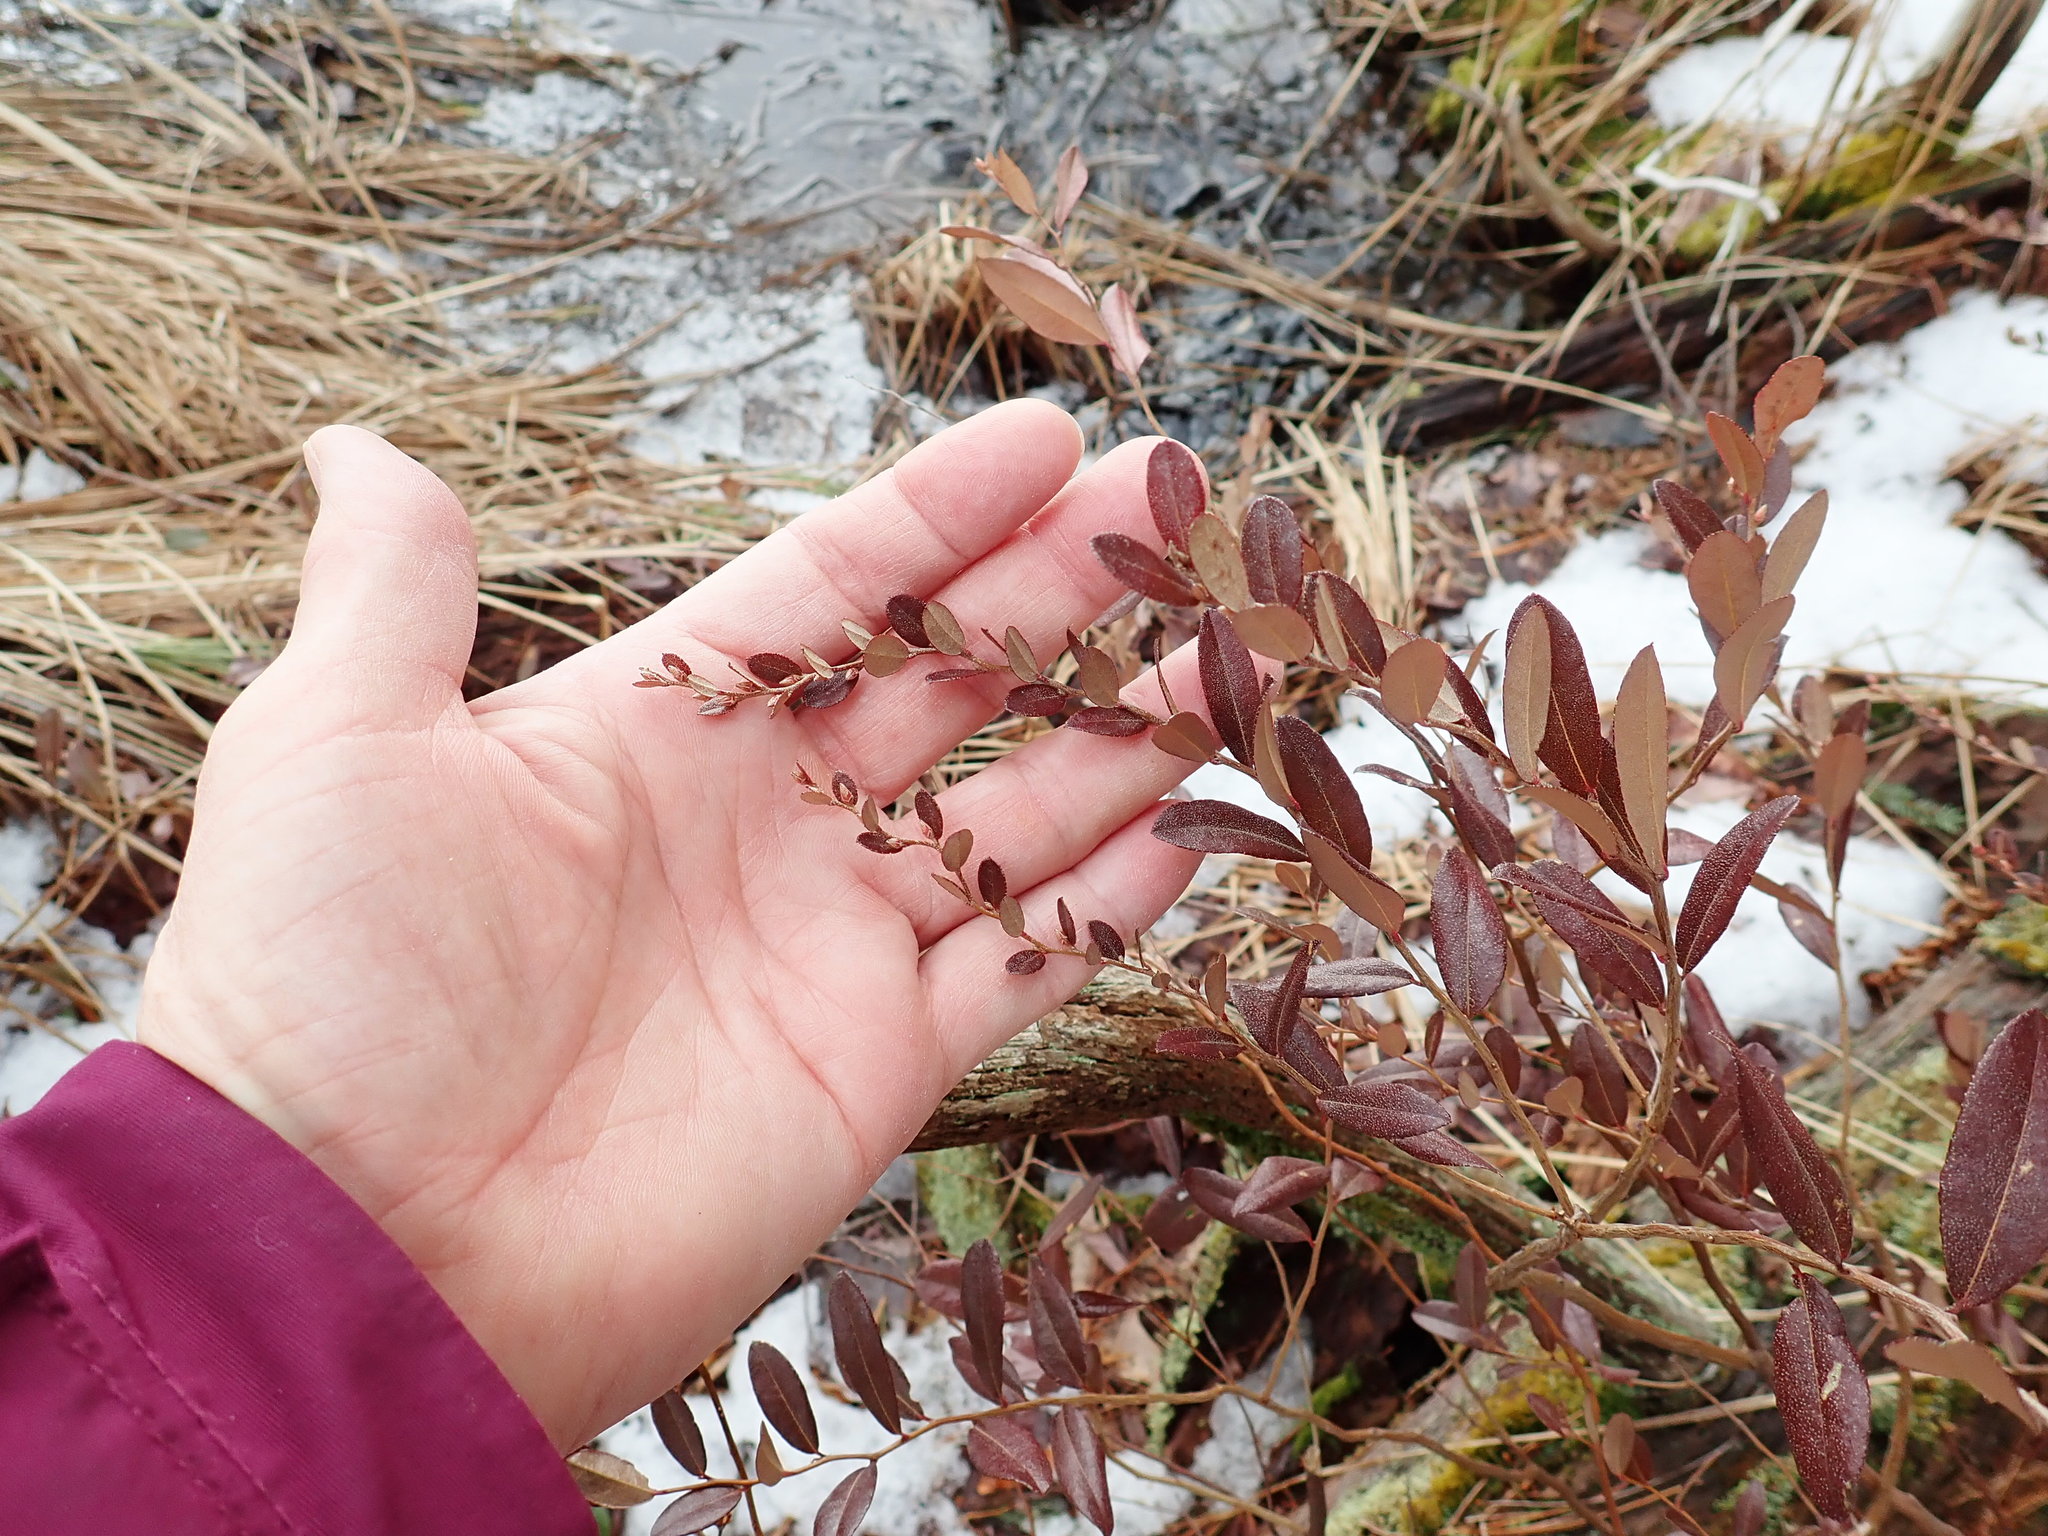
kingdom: Plantae
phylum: Tracheophyta
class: Magnoliopsida
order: Ericales
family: Ericaceae
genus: Chamaedaphne
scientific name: Chamaedaphne calyculata
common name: Leatherleaf
